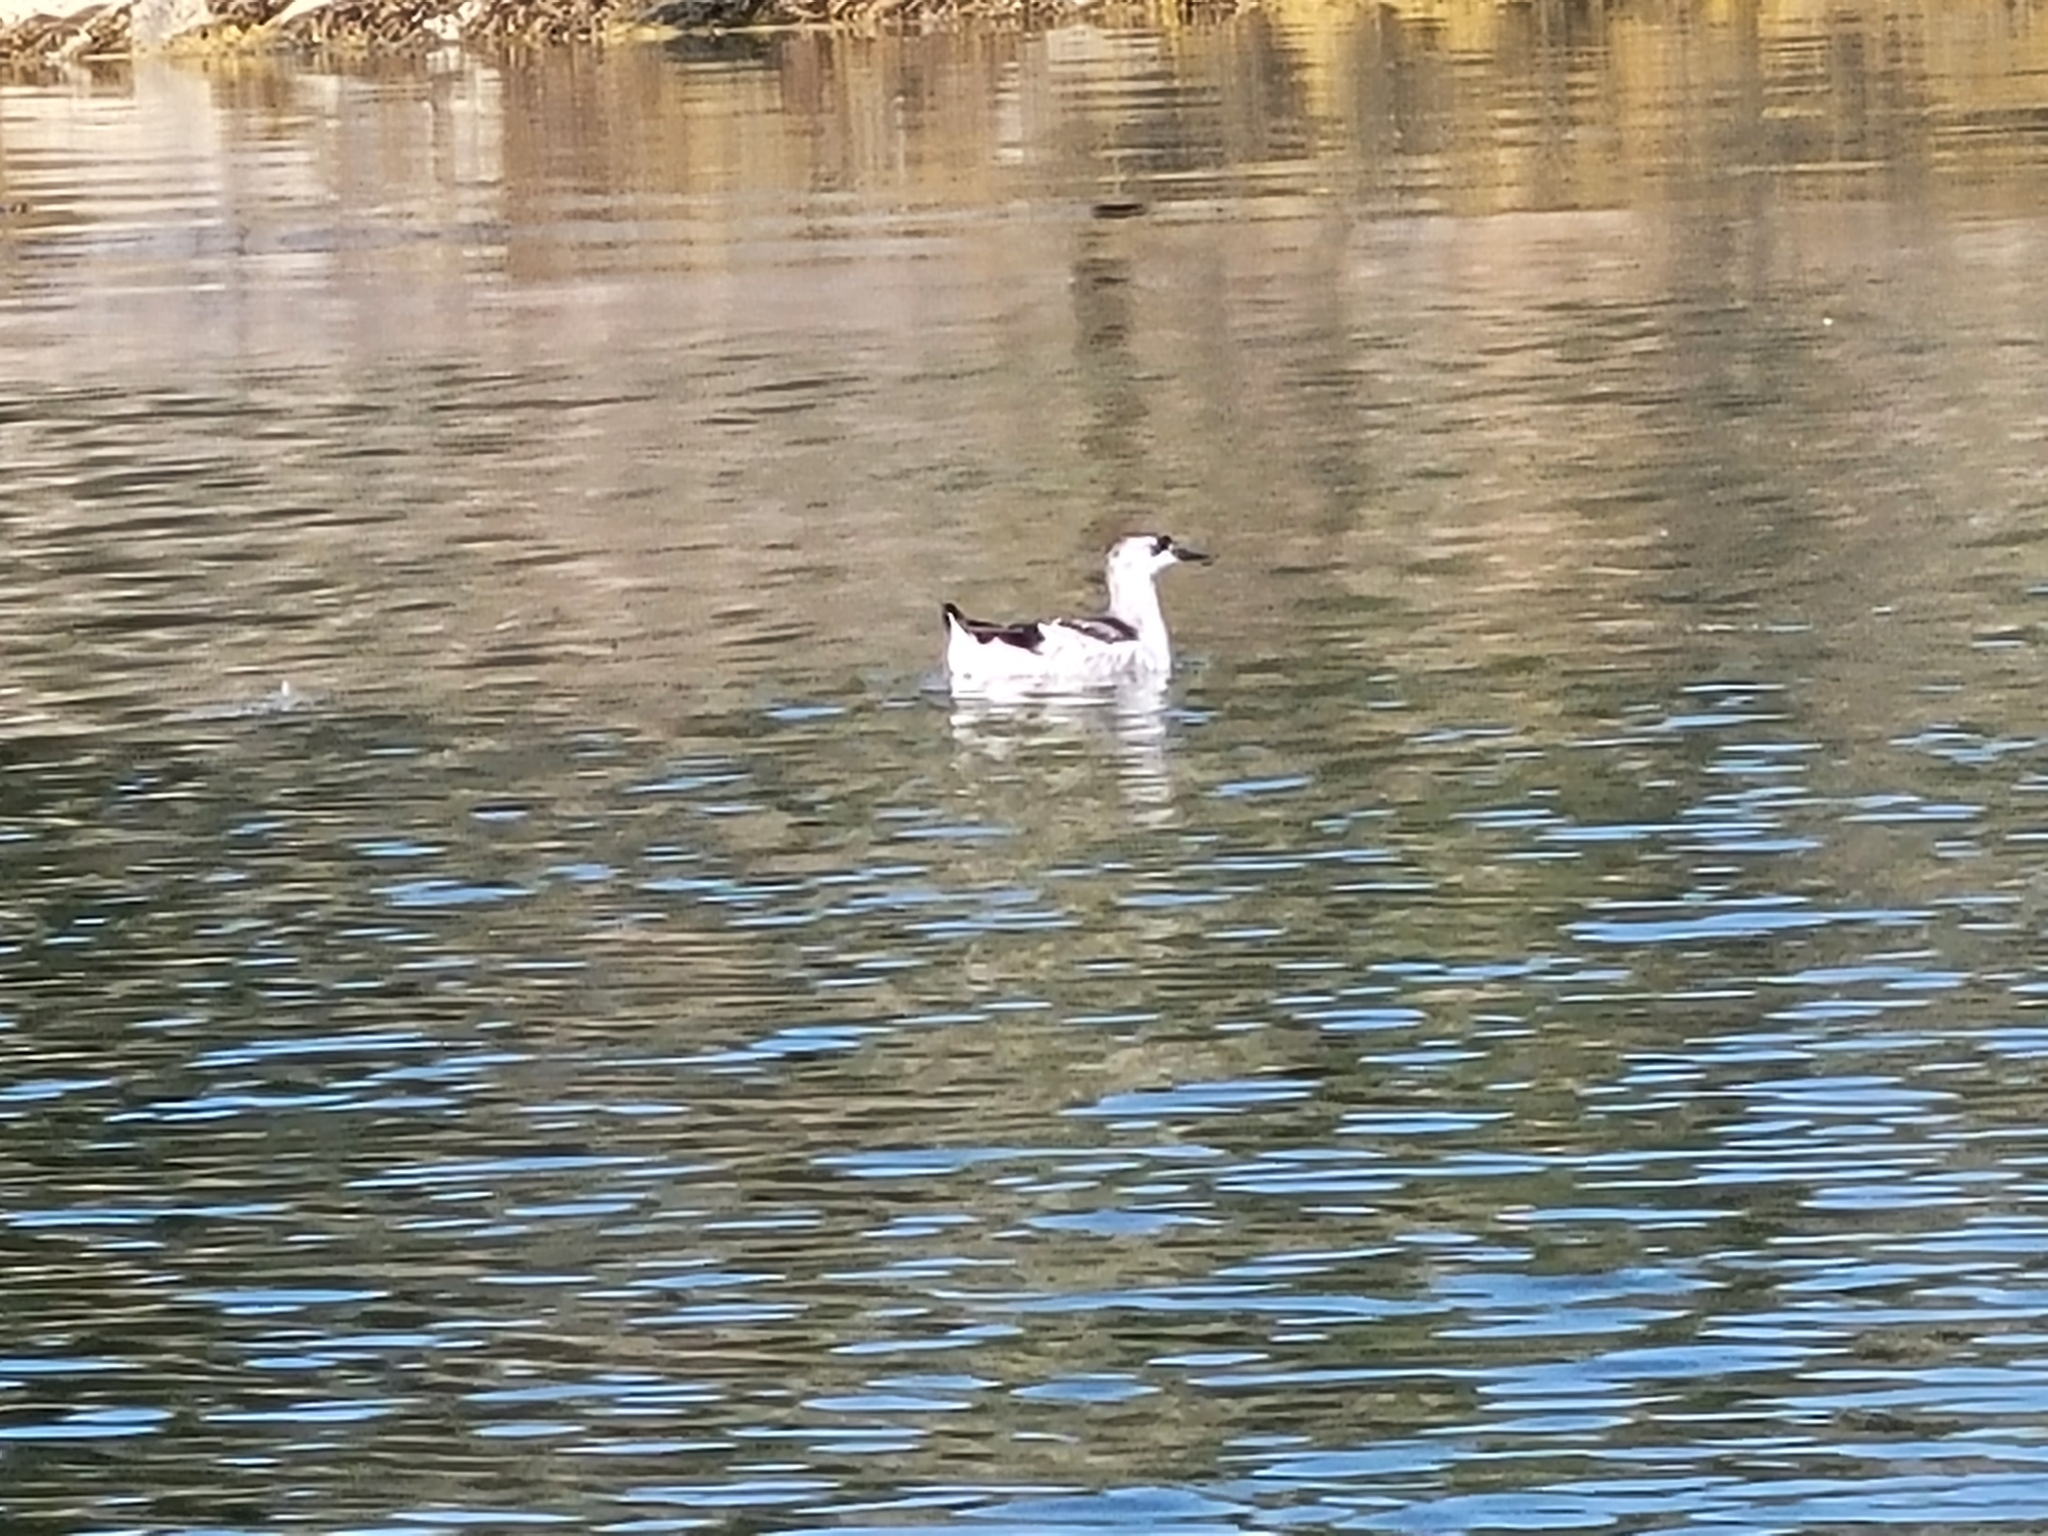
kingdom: Animalia
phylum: Chordata
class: Aves
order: Charadriiformes
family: Alcidae
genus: Cepphus
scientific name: Cepphus grylle
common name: Black guillemot
